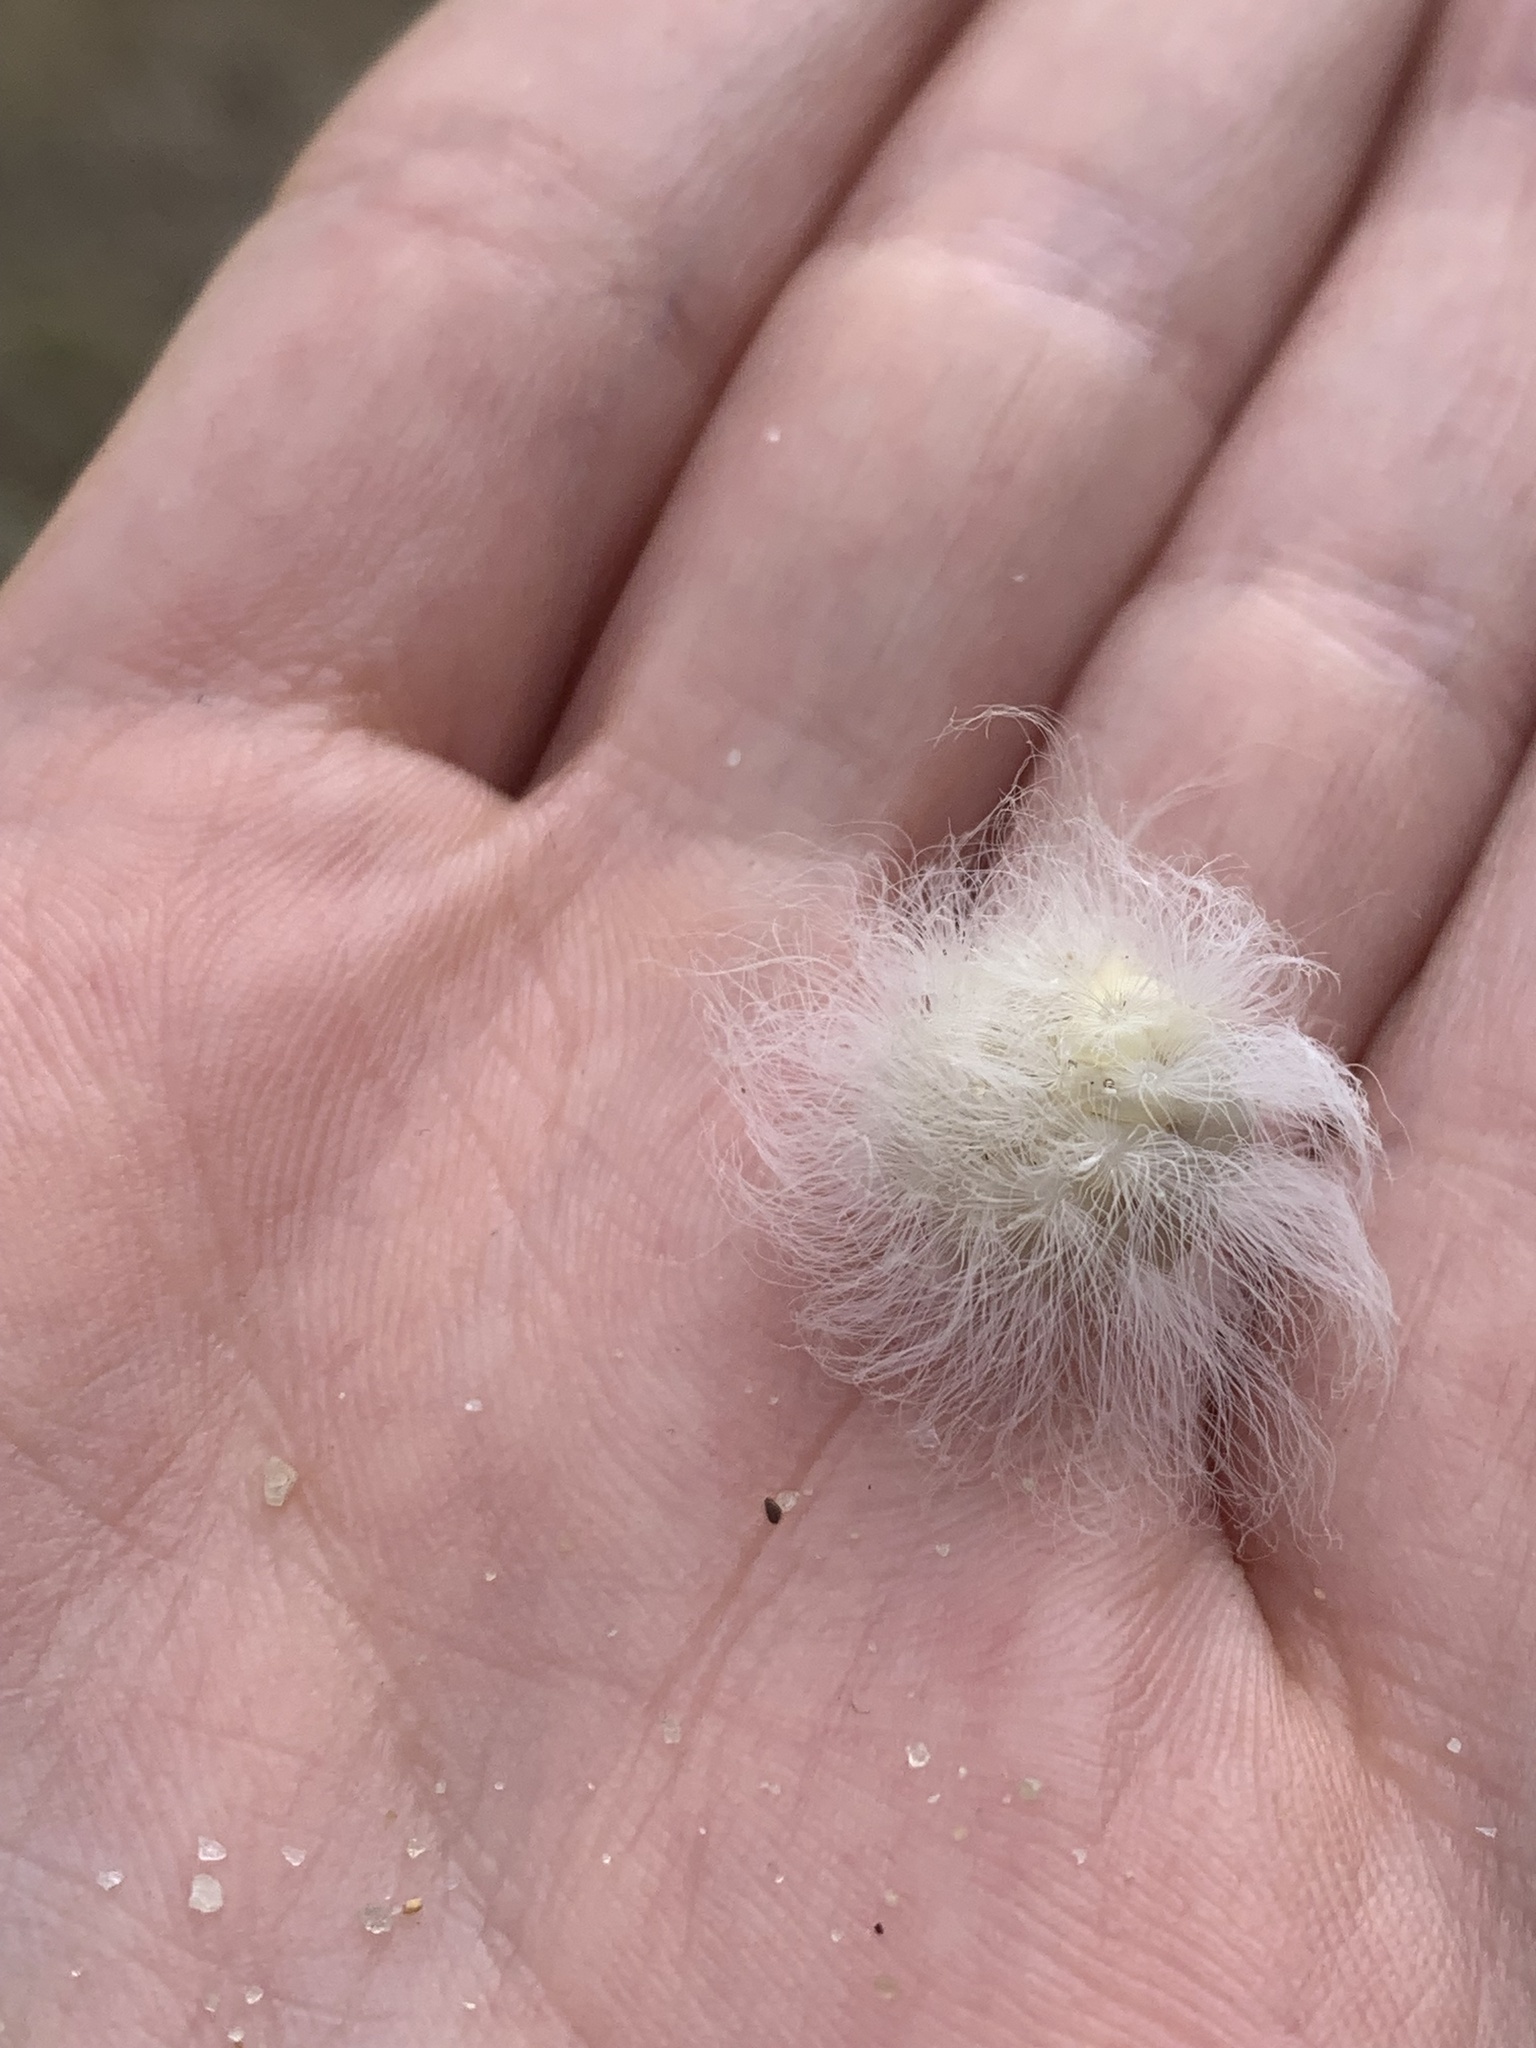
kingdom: Animalia
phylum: Arthropoda
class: Insecta
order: Lepidoptera
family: Megalopygidae
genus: Megalopyge
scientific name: Megalopyge crispata
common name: Black-waved flannel moth
